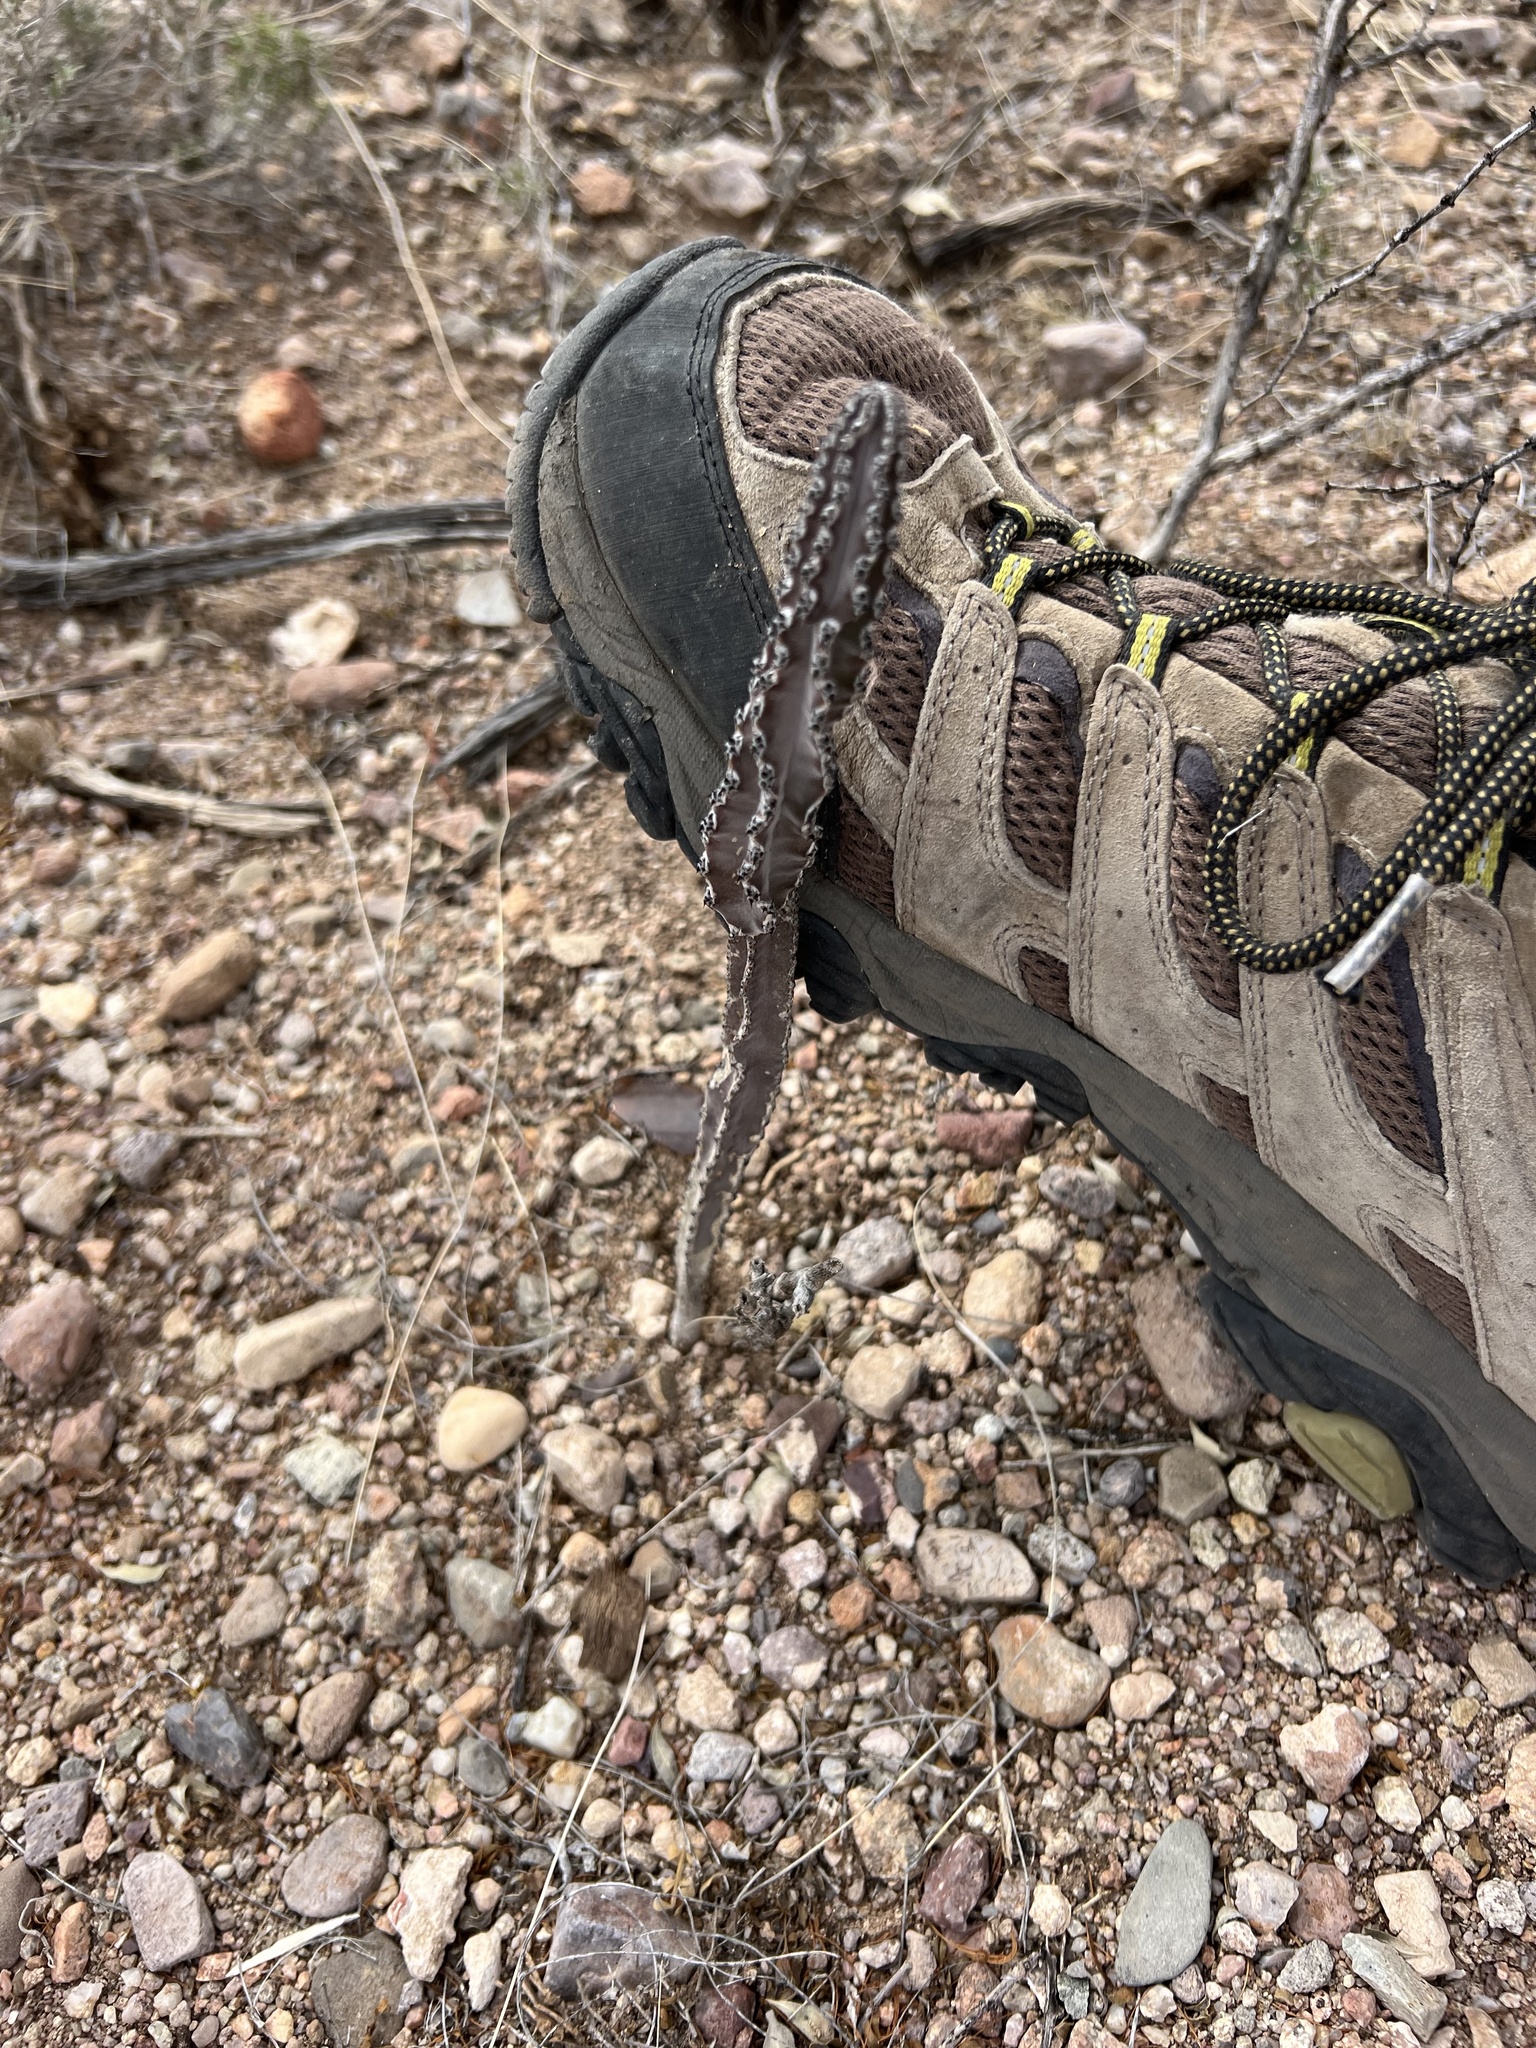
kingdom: Plantae
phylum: Tracheophyta
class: Magnoliopsida
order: Caryophyllales
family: Cactaceae
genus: Peniocereus
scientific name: Peniocereus greggii
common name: Desert night-blooming cereus
